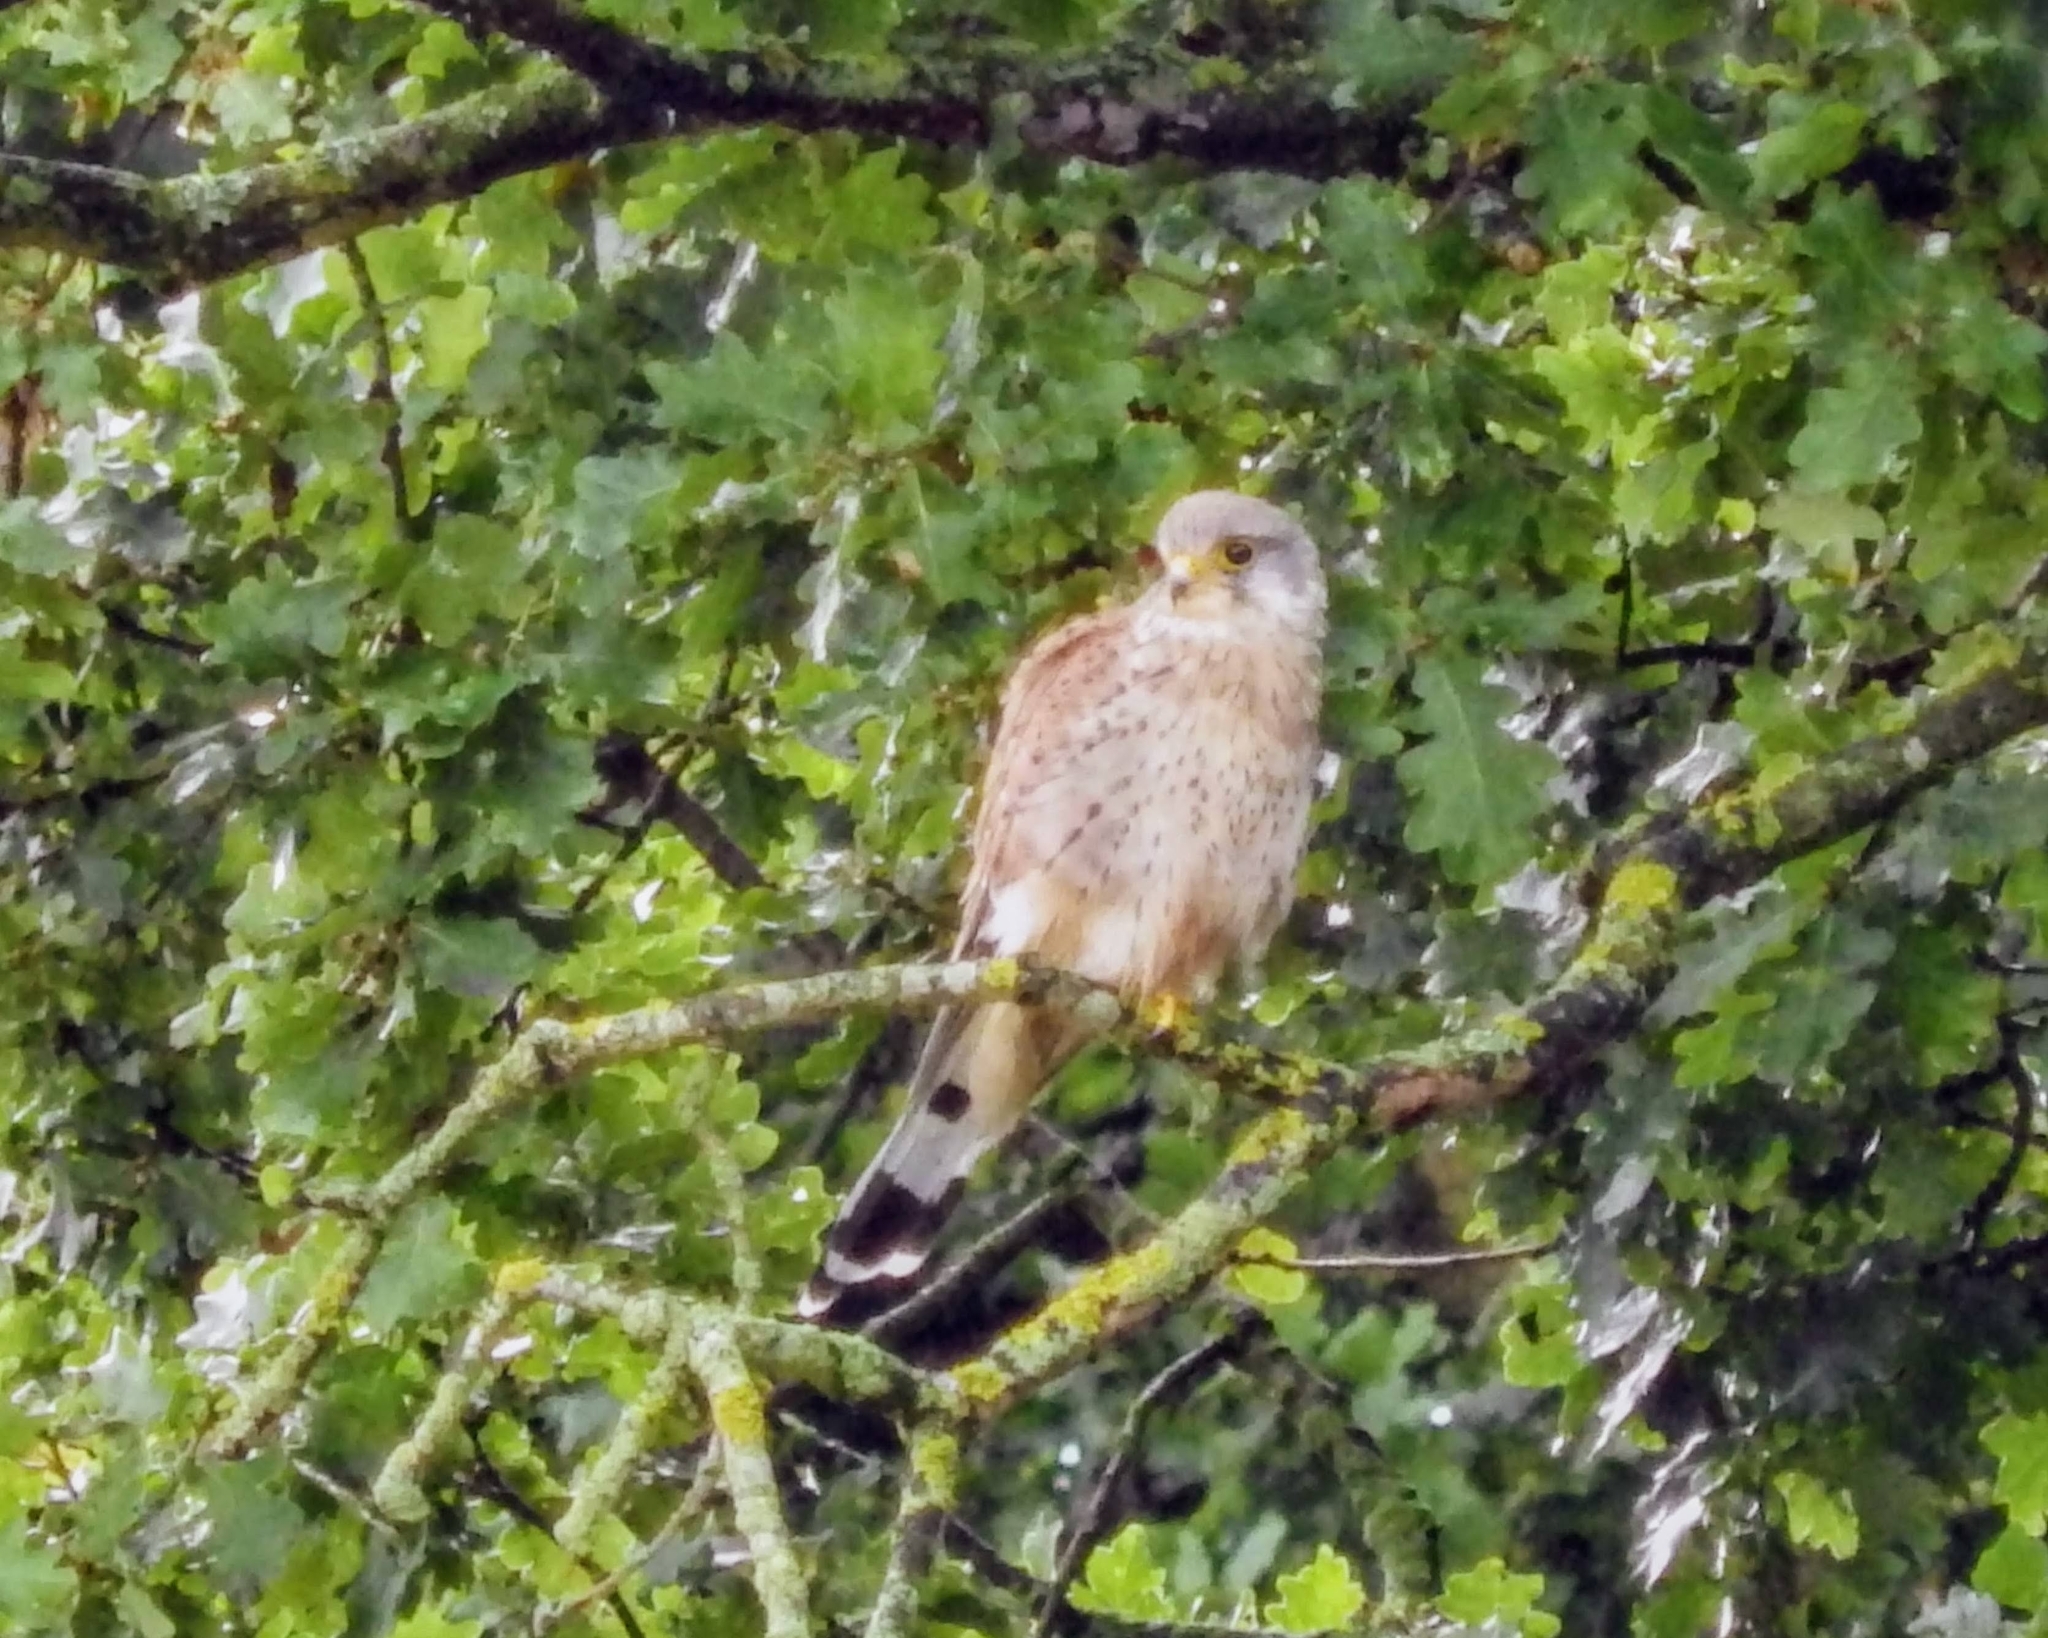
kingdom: Animalia
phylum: Chordata
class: Aves
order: Falconiformes
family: Falconidae
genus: Falco
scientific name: Falco tinnunculus
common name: Common kestrel
